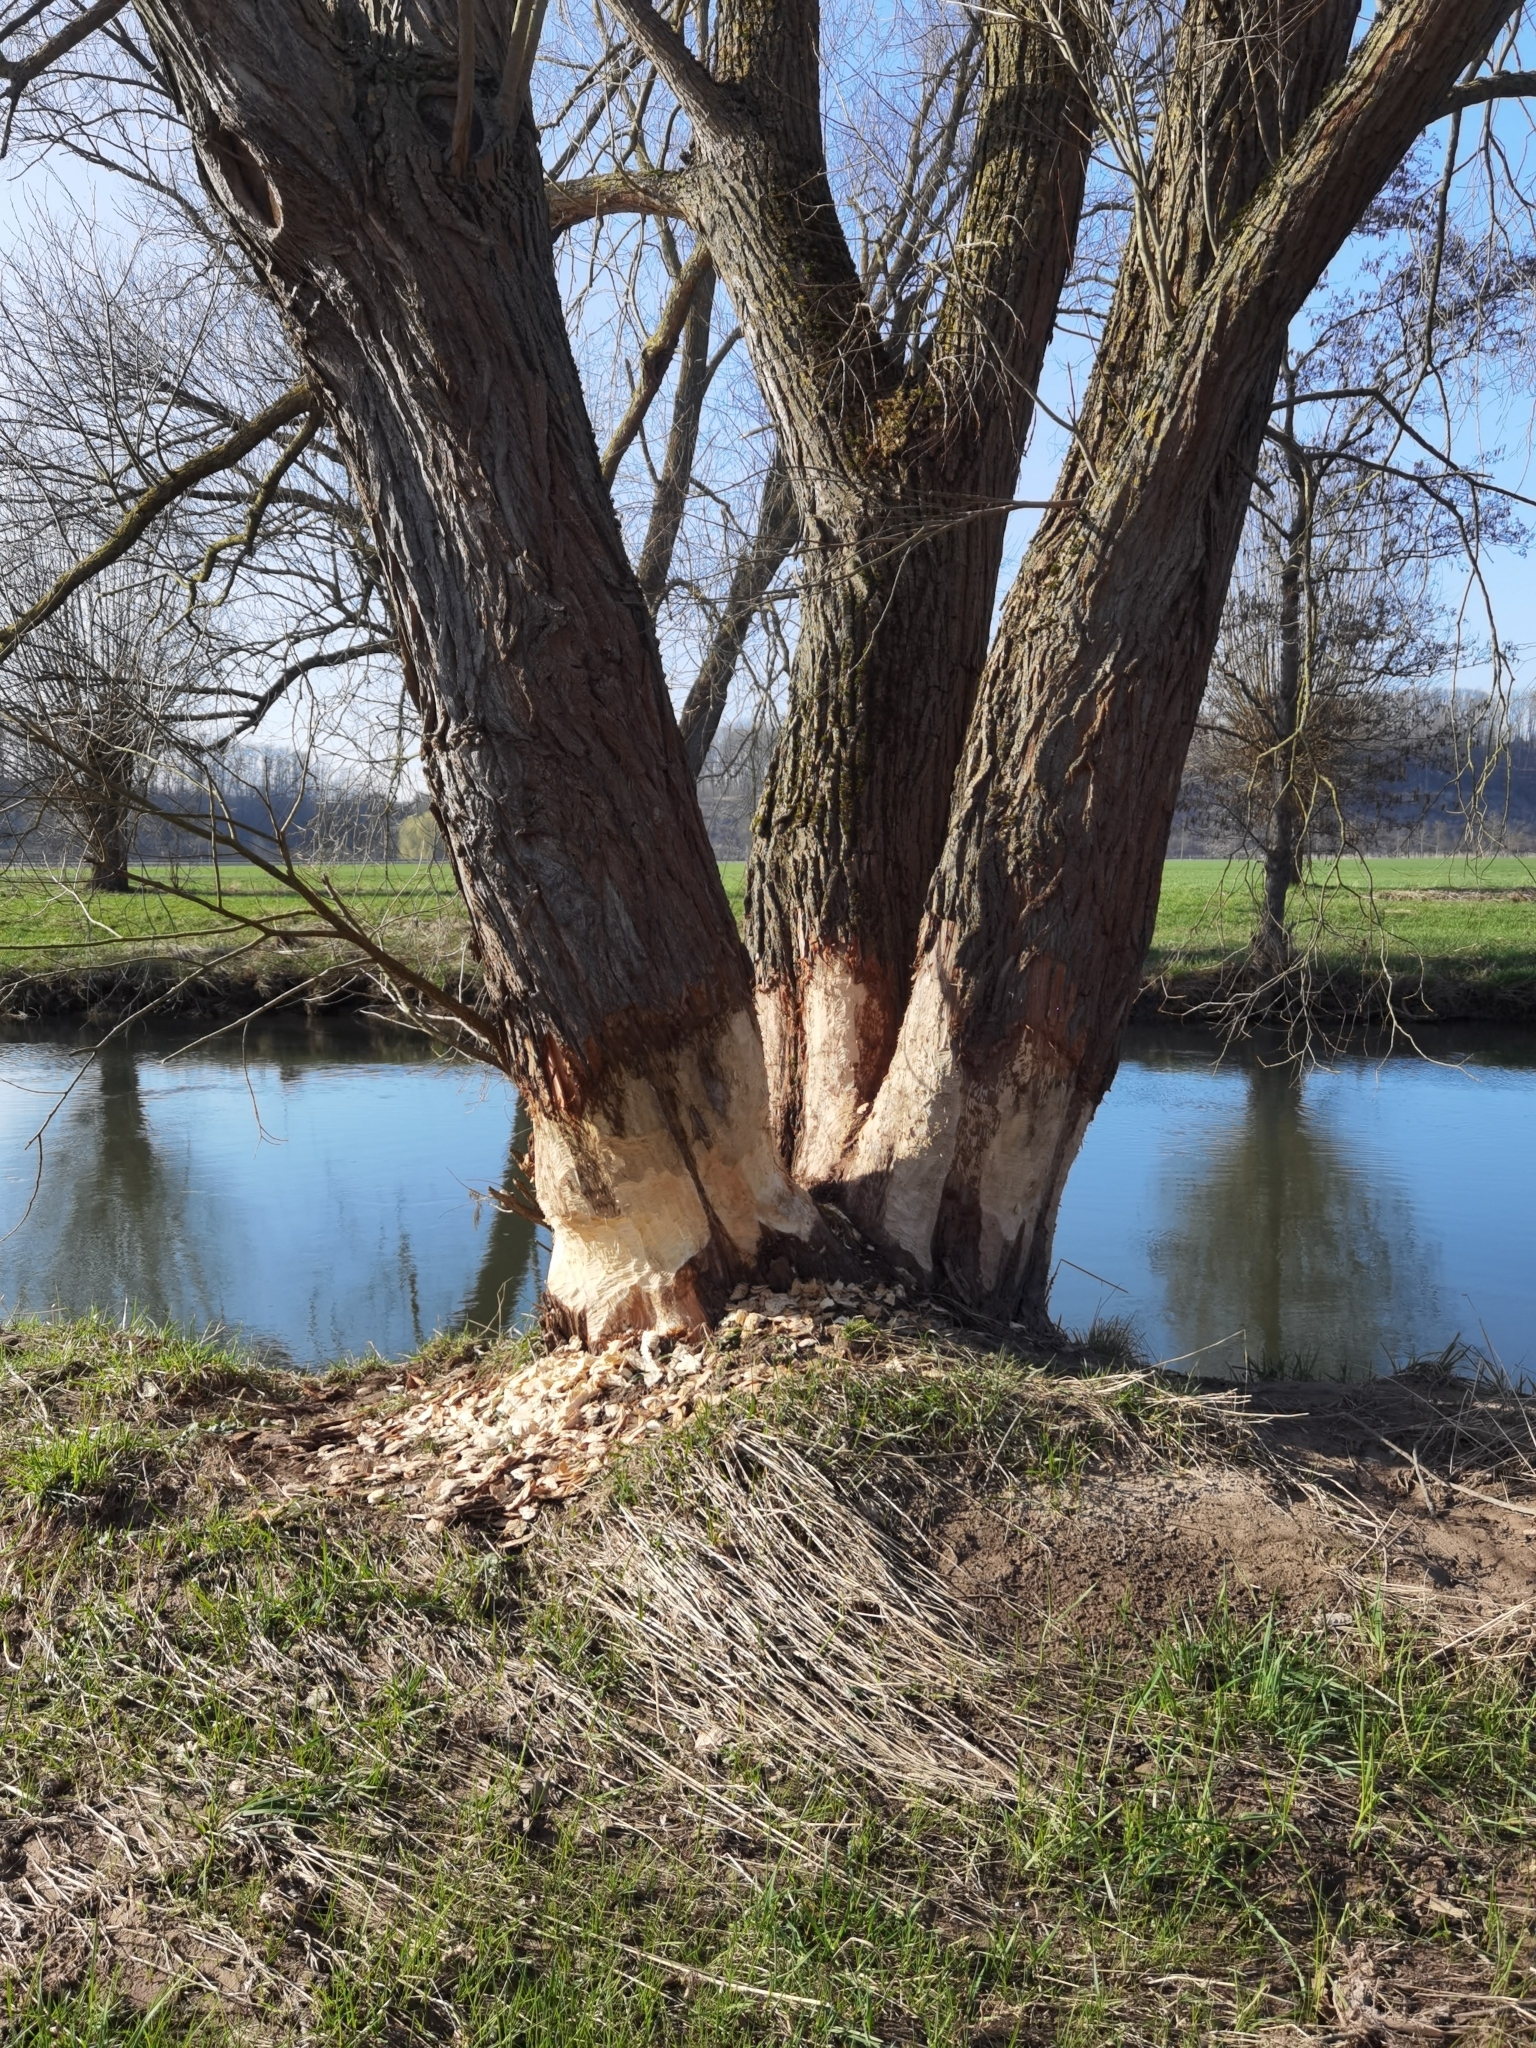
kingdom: Animalia
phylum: Chordata
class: Mammalia
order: Rodentia
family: Castoridae
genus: Castor
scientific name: Castor fiber
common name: Eurasian beaver
